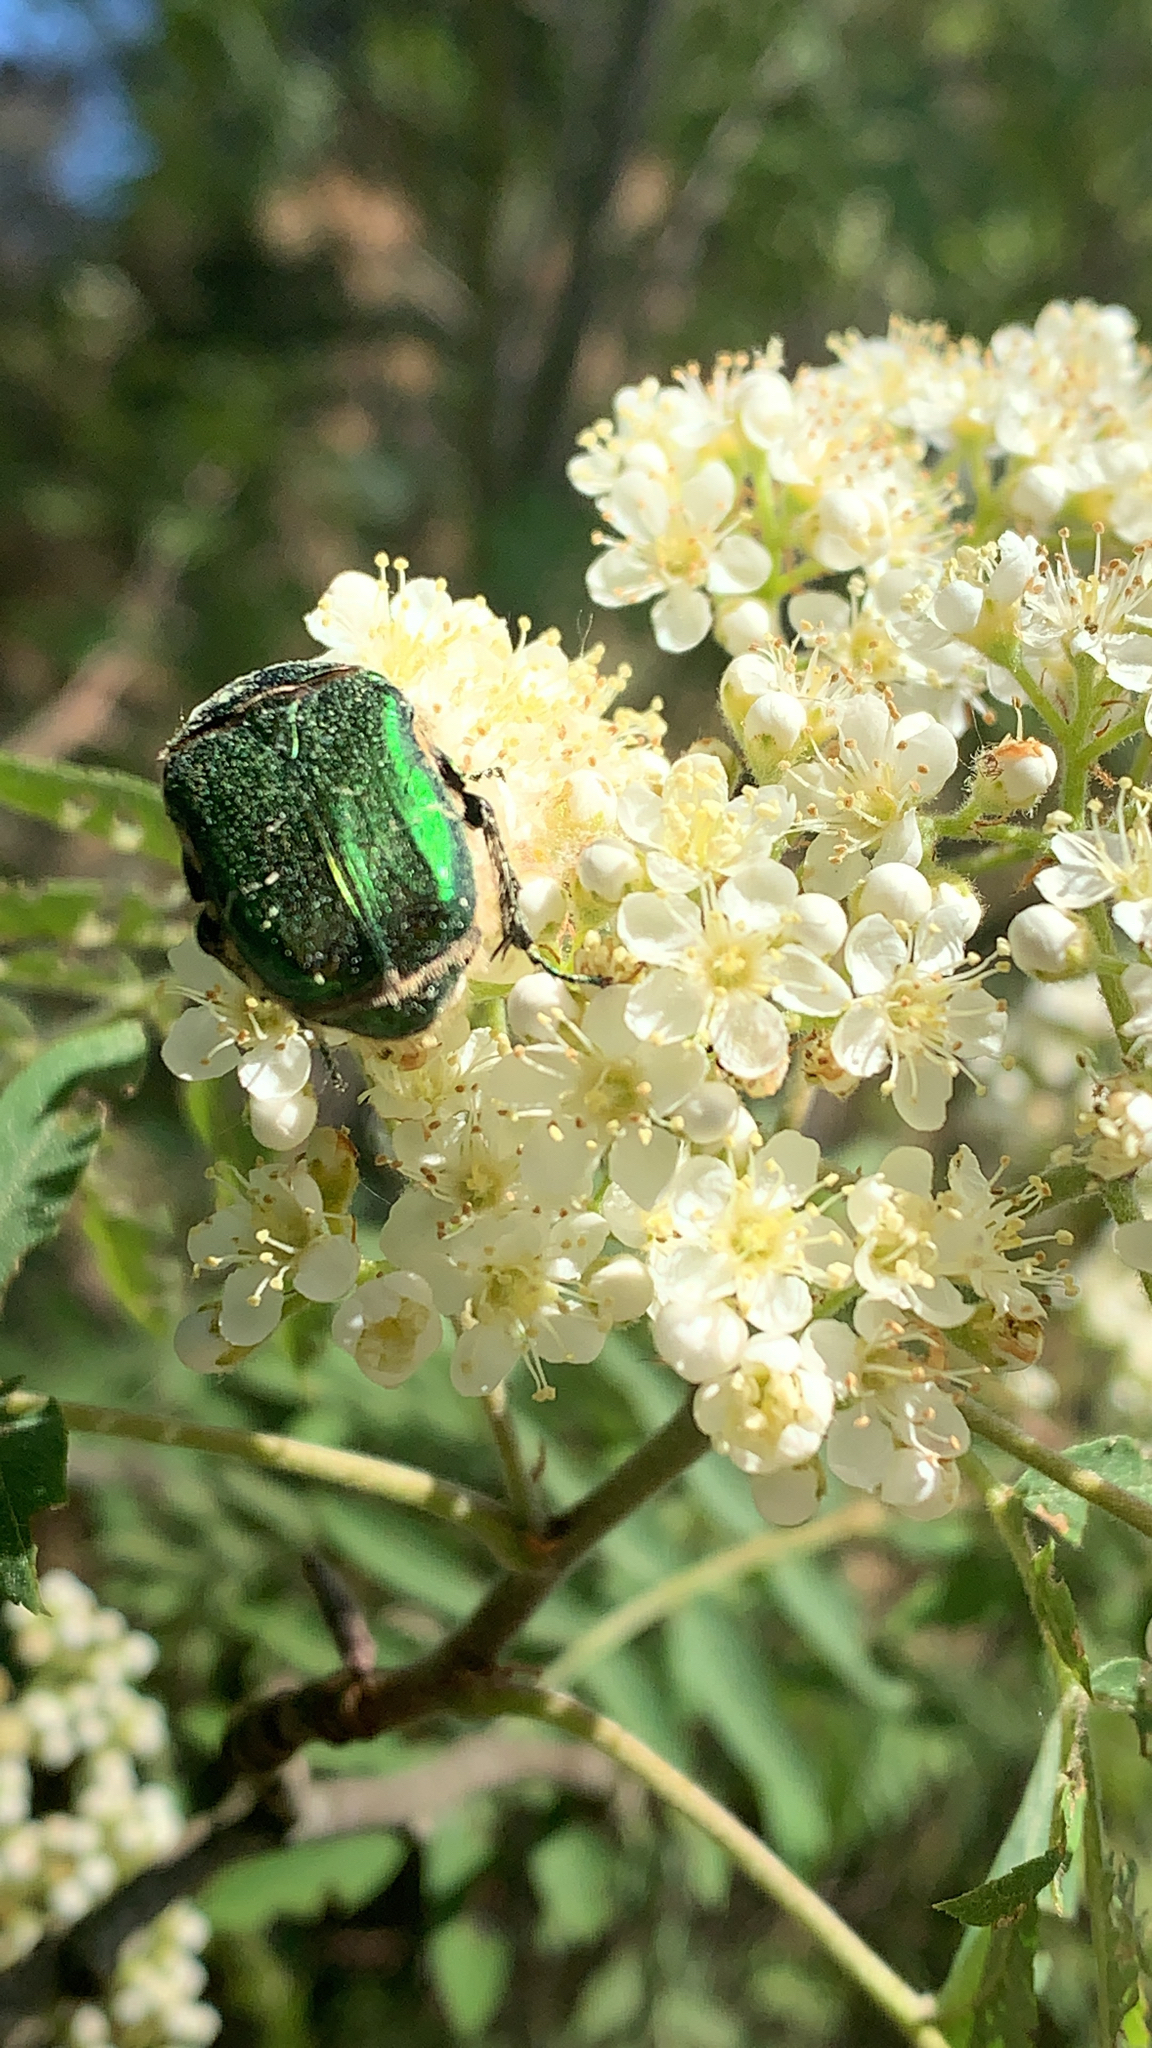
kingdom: Animalia
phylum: Arthropoda
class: Insecta
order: Coleoptera
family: Scarabaeidae
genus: Cetonia
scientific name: Cetonia aurata
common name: Rose chafer
